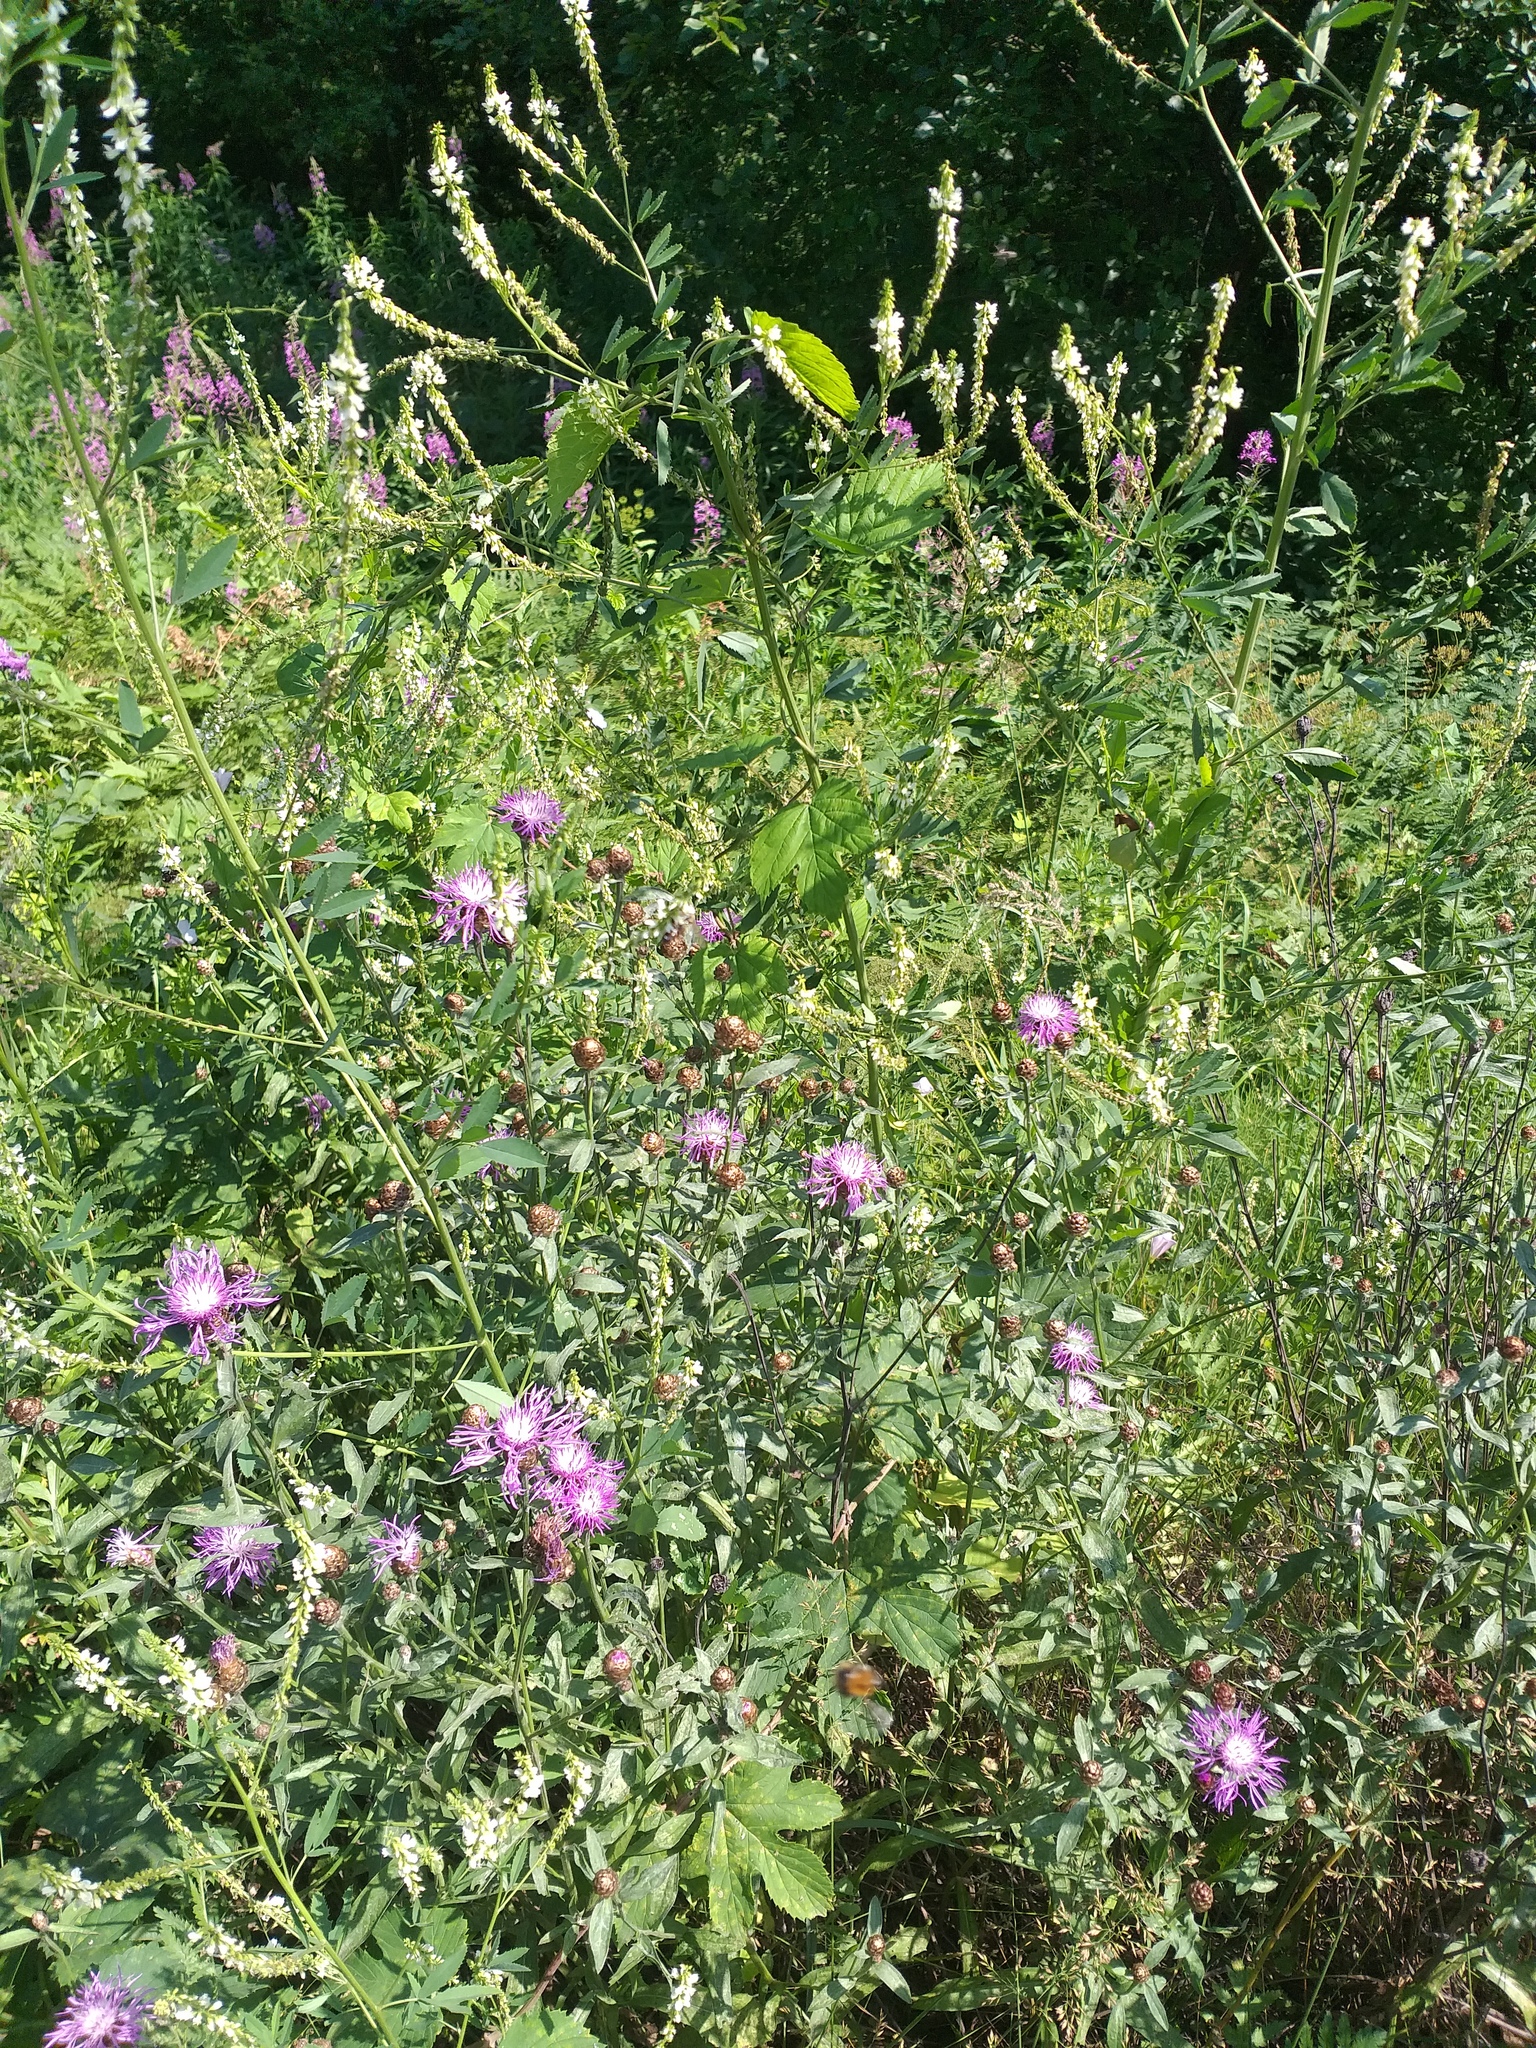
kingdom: Plantae
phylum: Tracheophyta
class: Magnoliopsida
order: Asterales
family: Asteraceae
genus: Centaurea
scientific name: Centaurea jacea
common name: Brown knapweed
